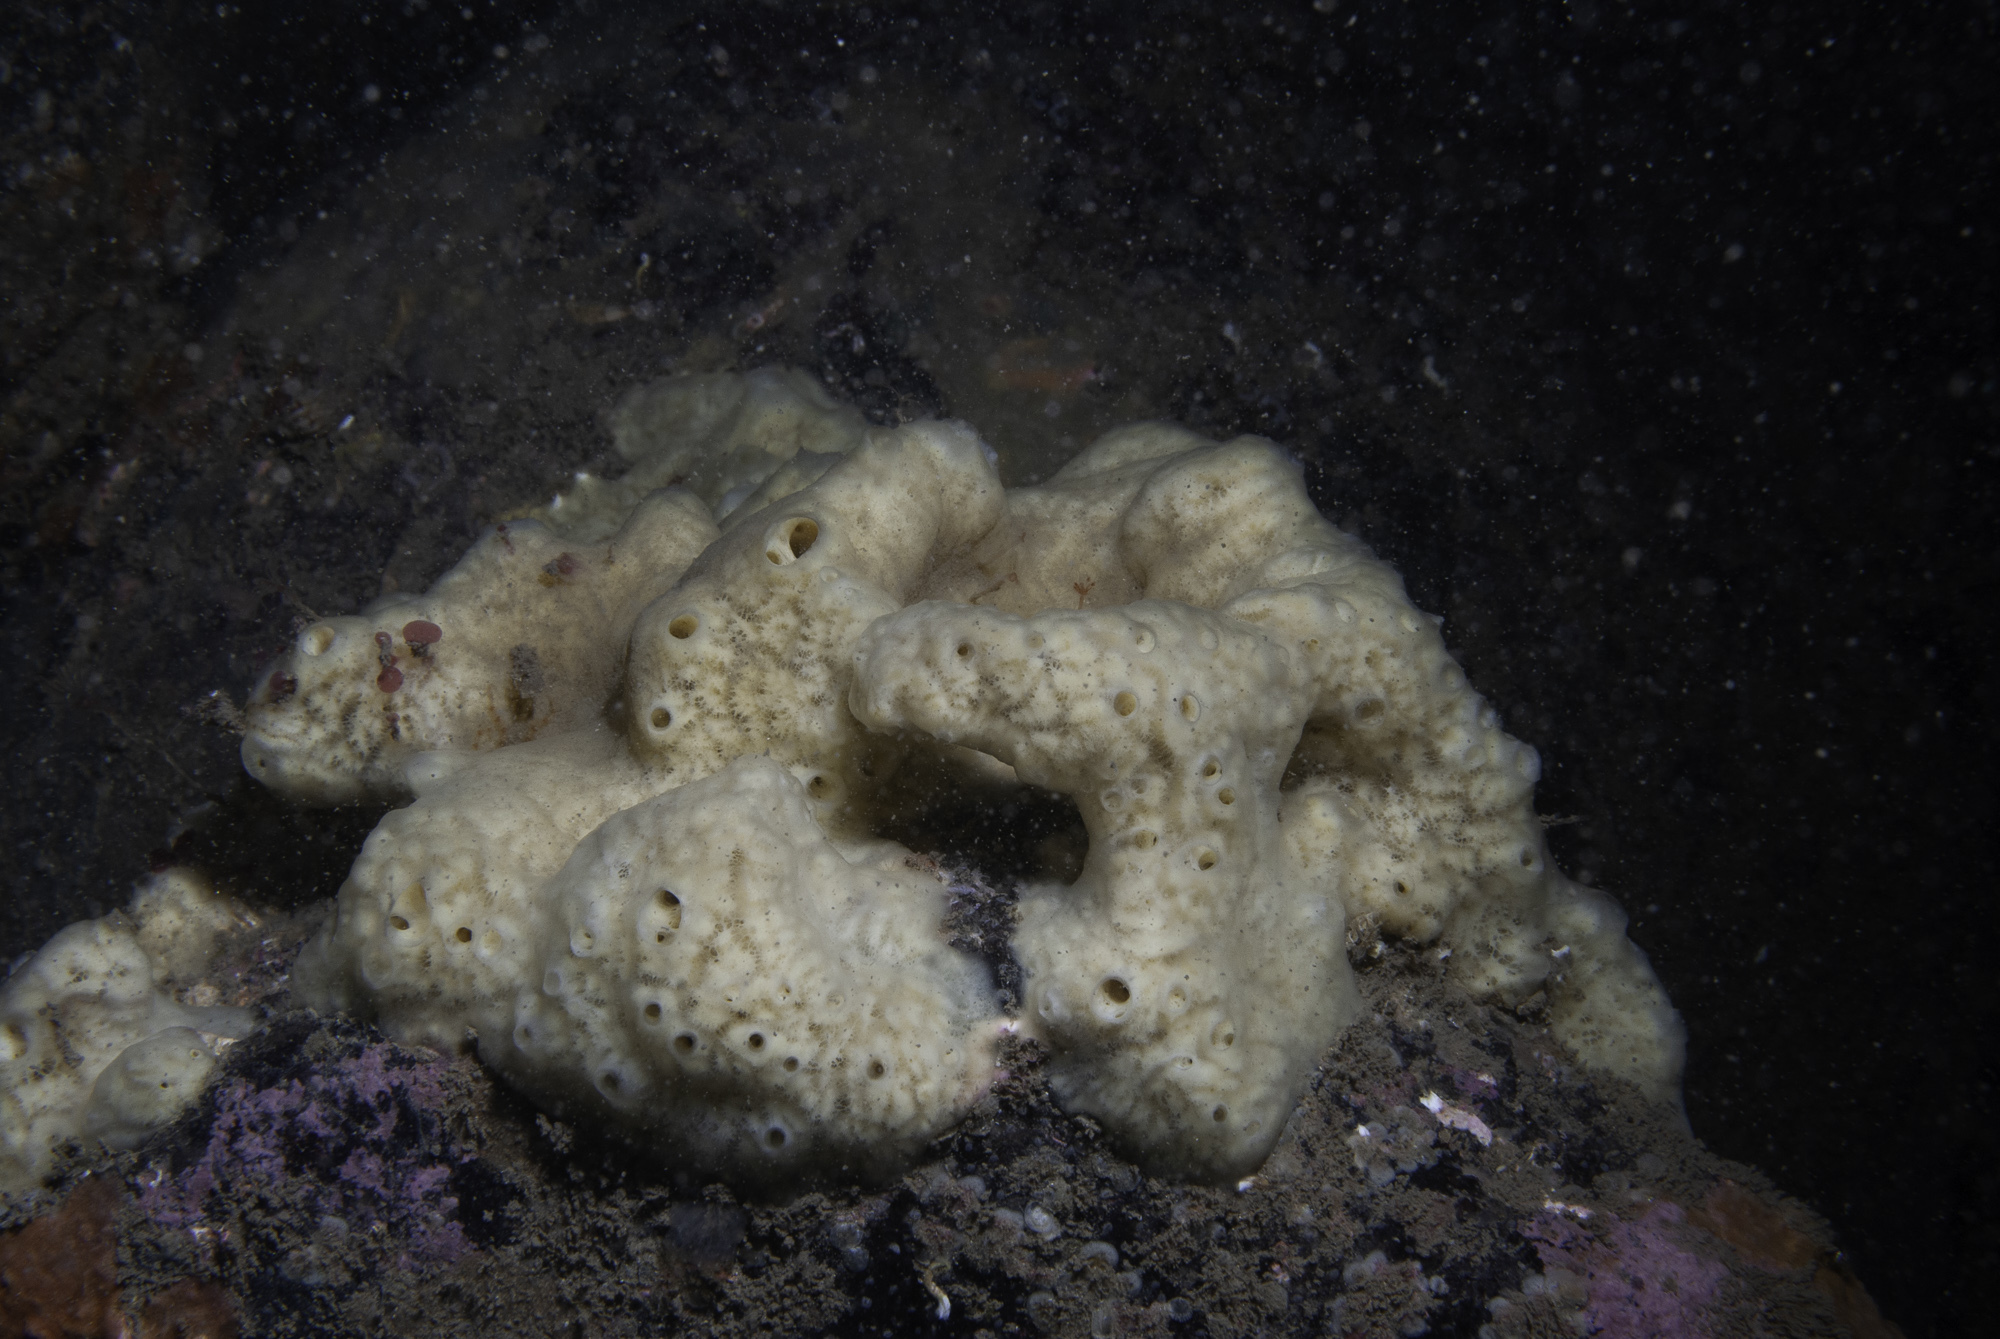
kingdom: Animalia
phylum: Porifera
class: Demospongiae
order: Poecilosclerida
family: Myxillidae
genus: Myxilla
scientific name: Myxilla incrustans
